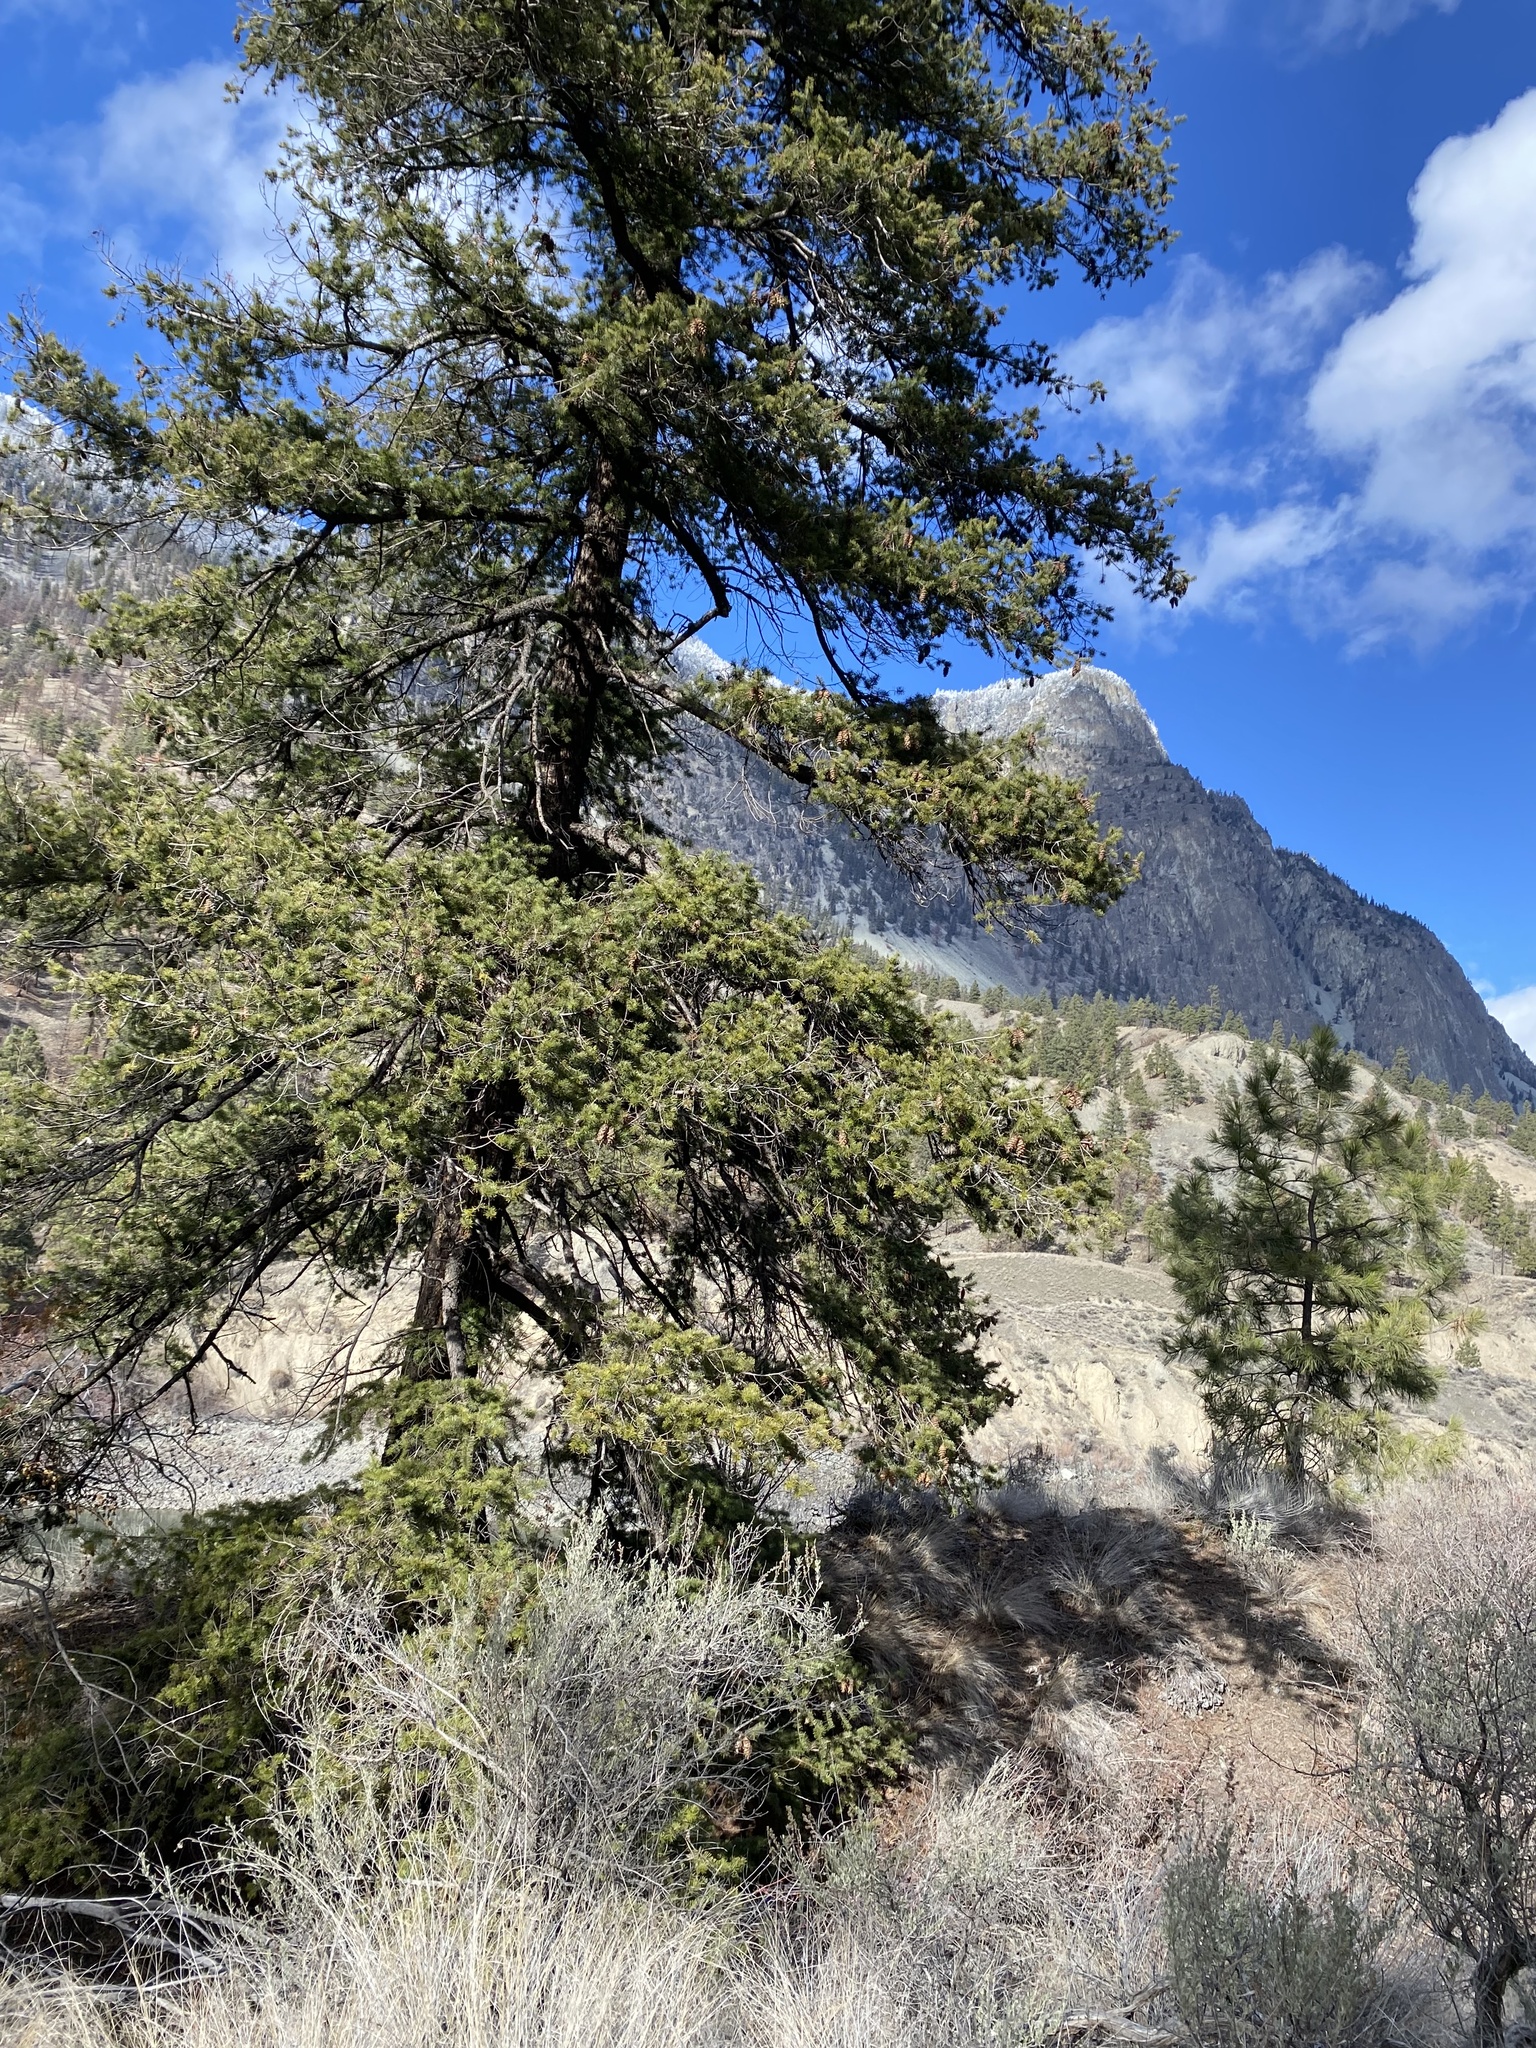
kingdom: Plantae
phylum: Tracheophyta
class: Pinopsida
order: Pinales
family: Pinaceae
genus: Pseudotsuga
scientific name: Pseudotsuga menziesii
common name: Douglas fir
